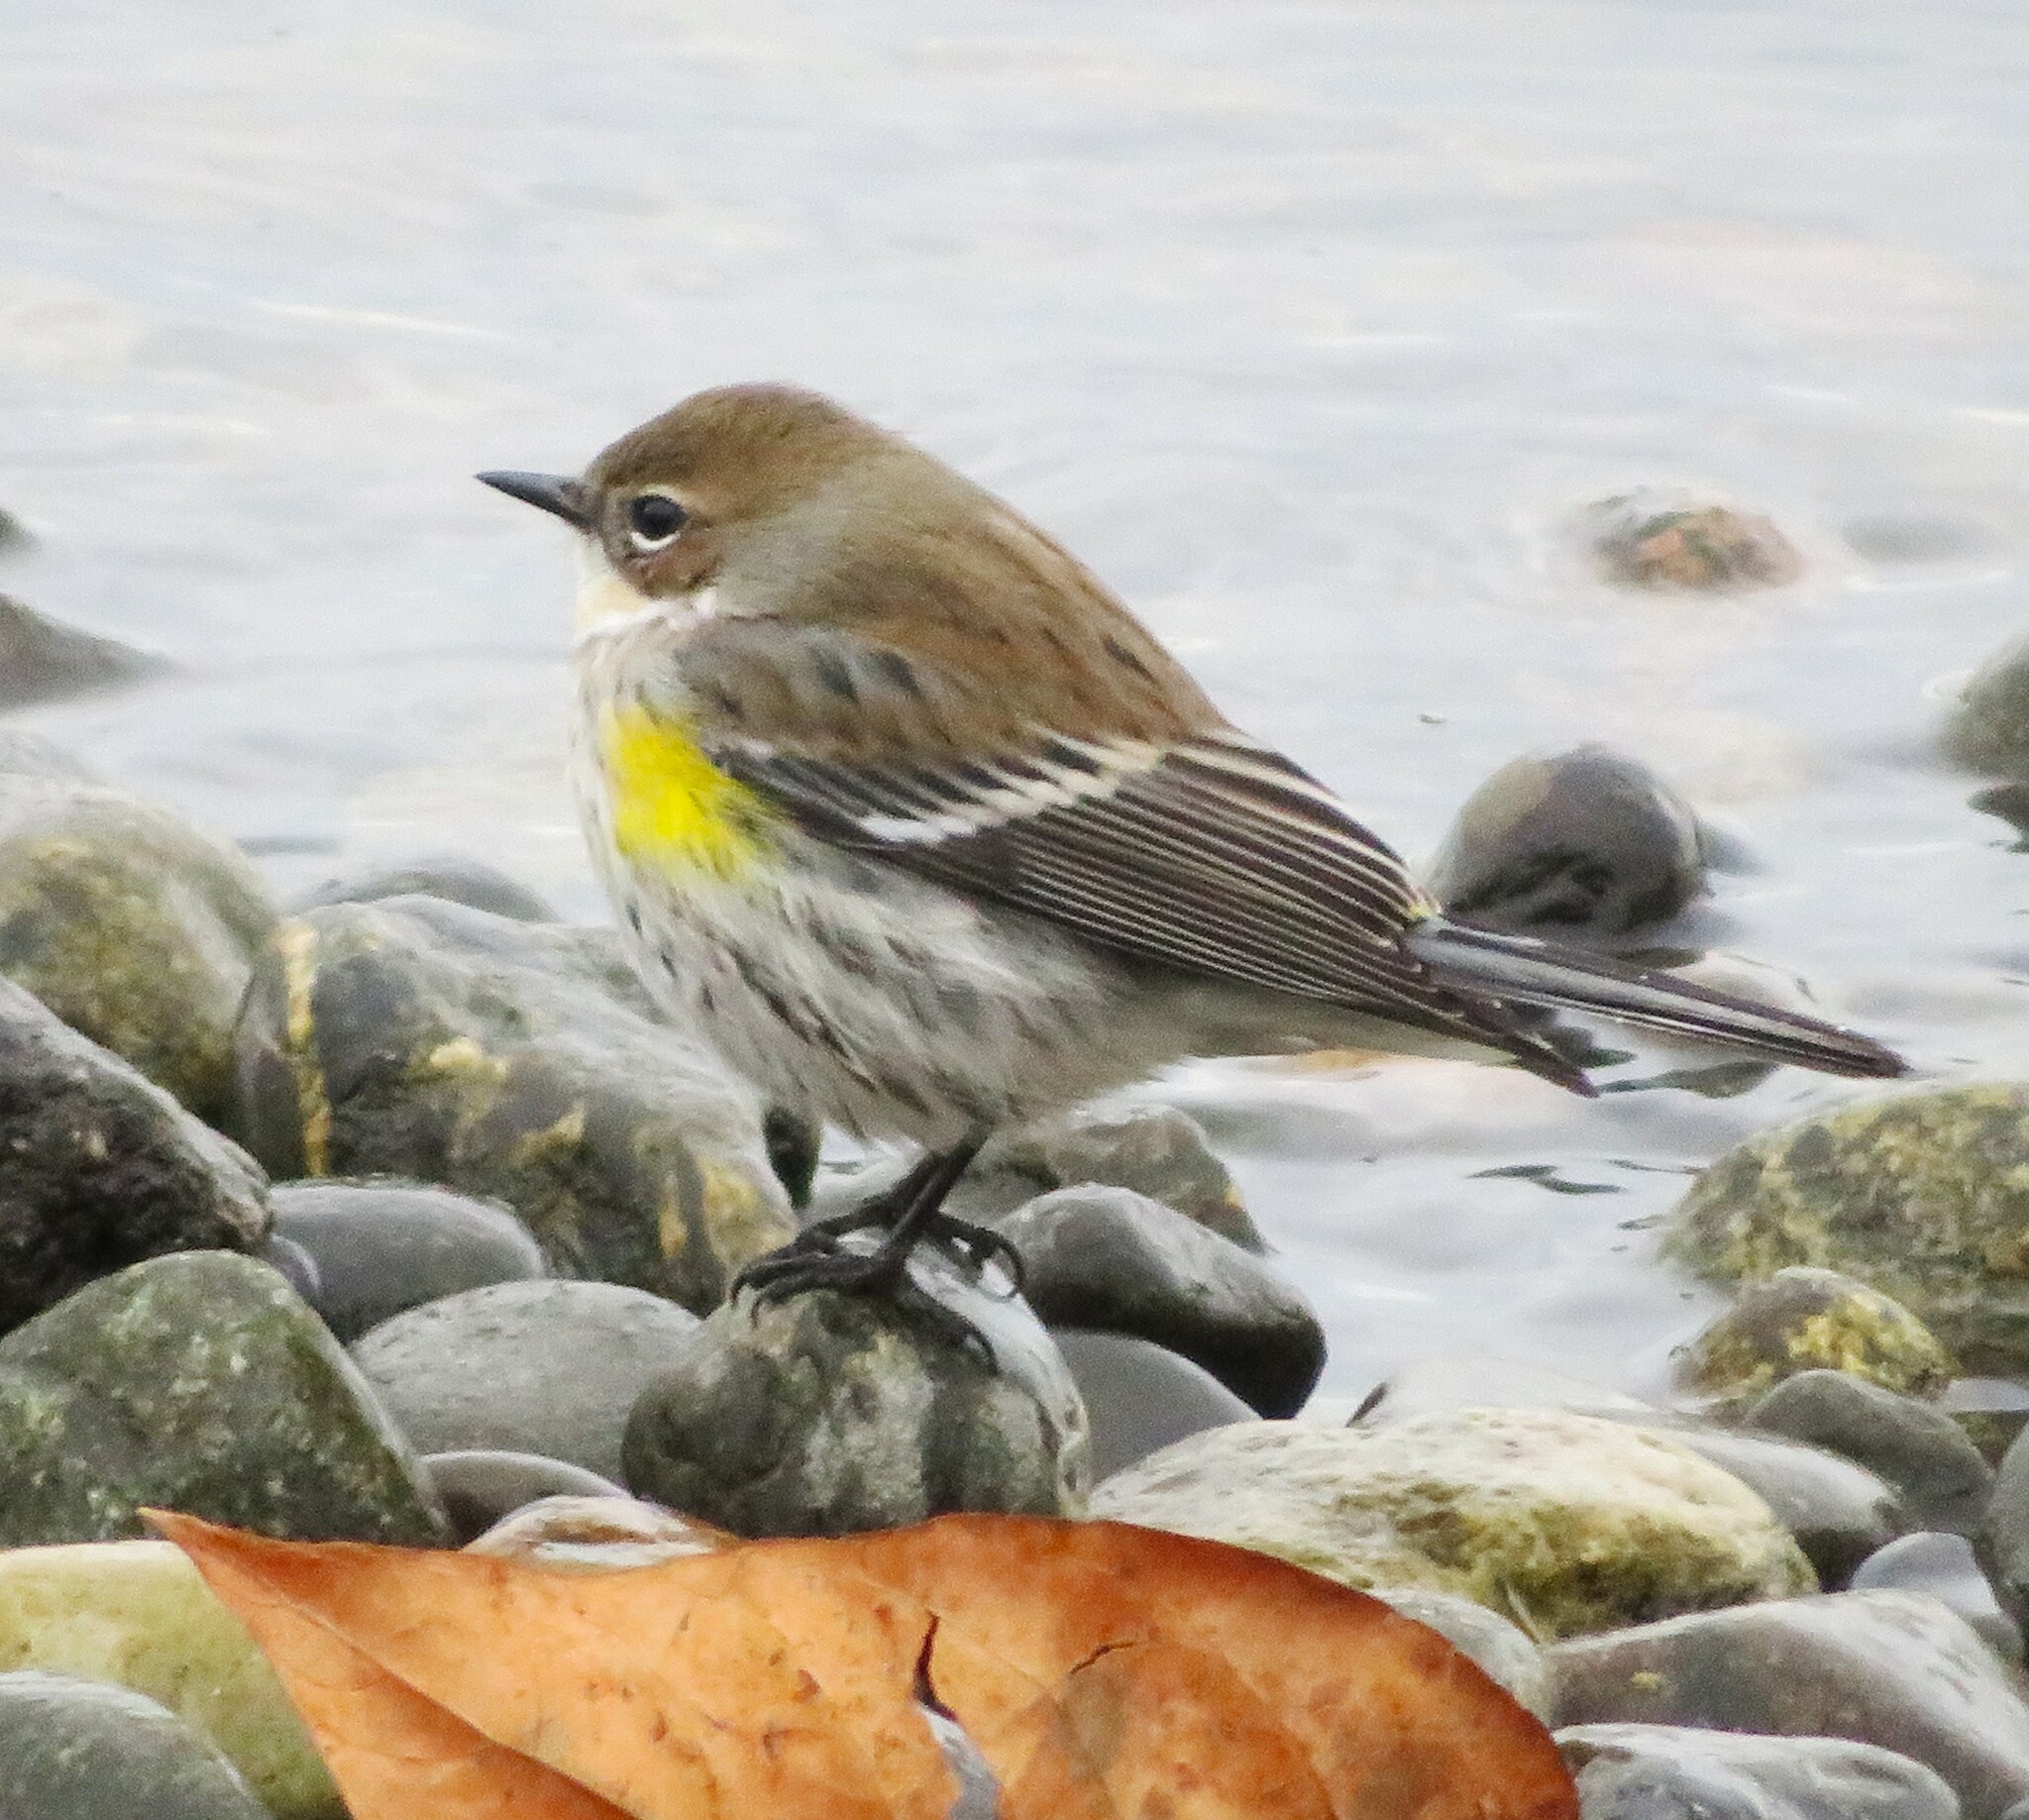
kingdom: Animalia
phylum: Chordata
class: Aves
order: Passeriformes
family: Parulidae
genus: Setophaga
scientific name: Setophaga coronata
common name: Myrtle warbler
